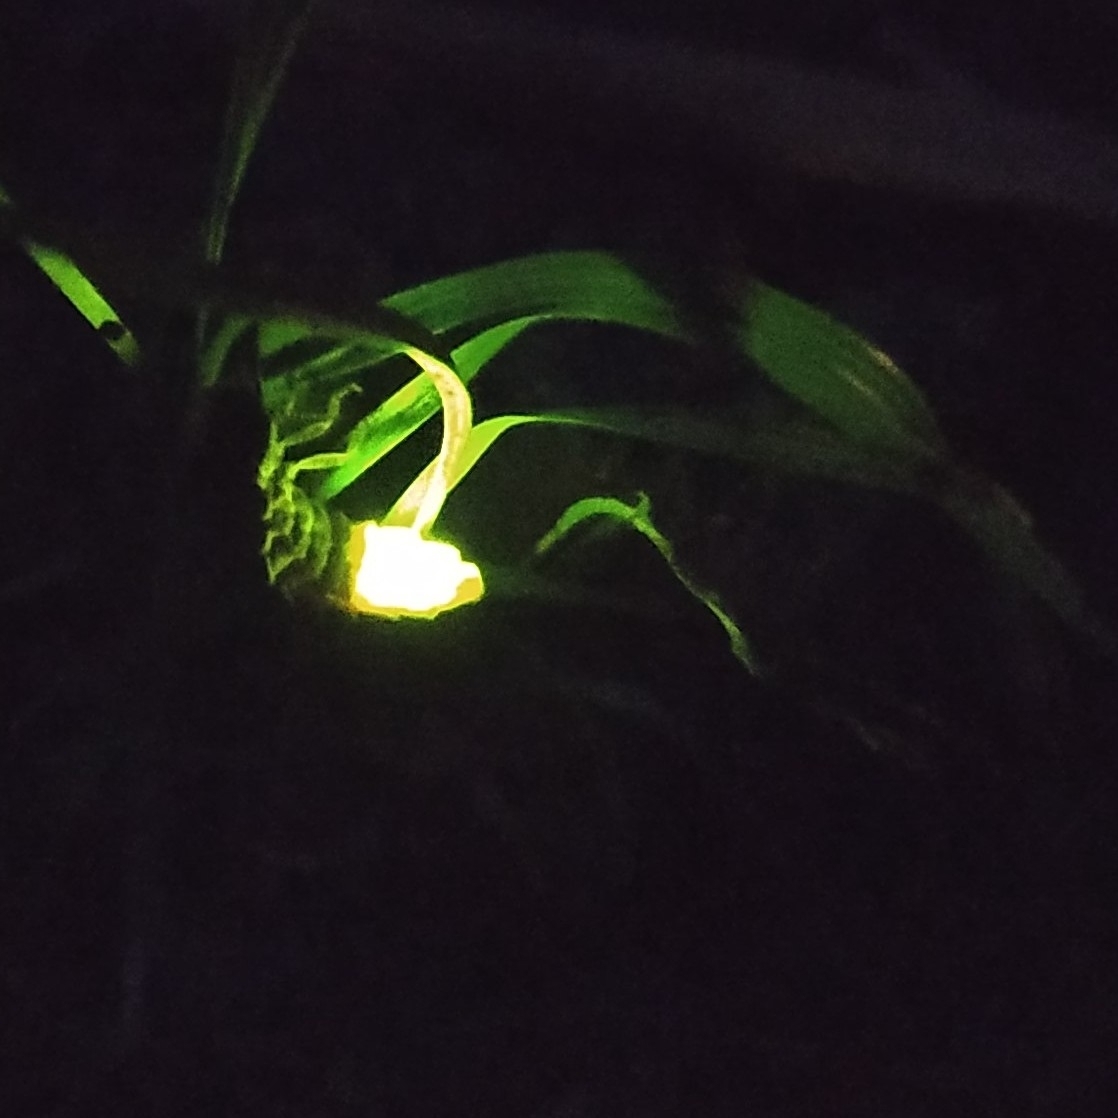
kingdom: Animalia
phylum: Arthropoda
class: Insecta
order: Coleoptera
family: Lampyridae
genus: Lampyris
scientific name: Lampyris noctiluca
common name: Glow-worm
